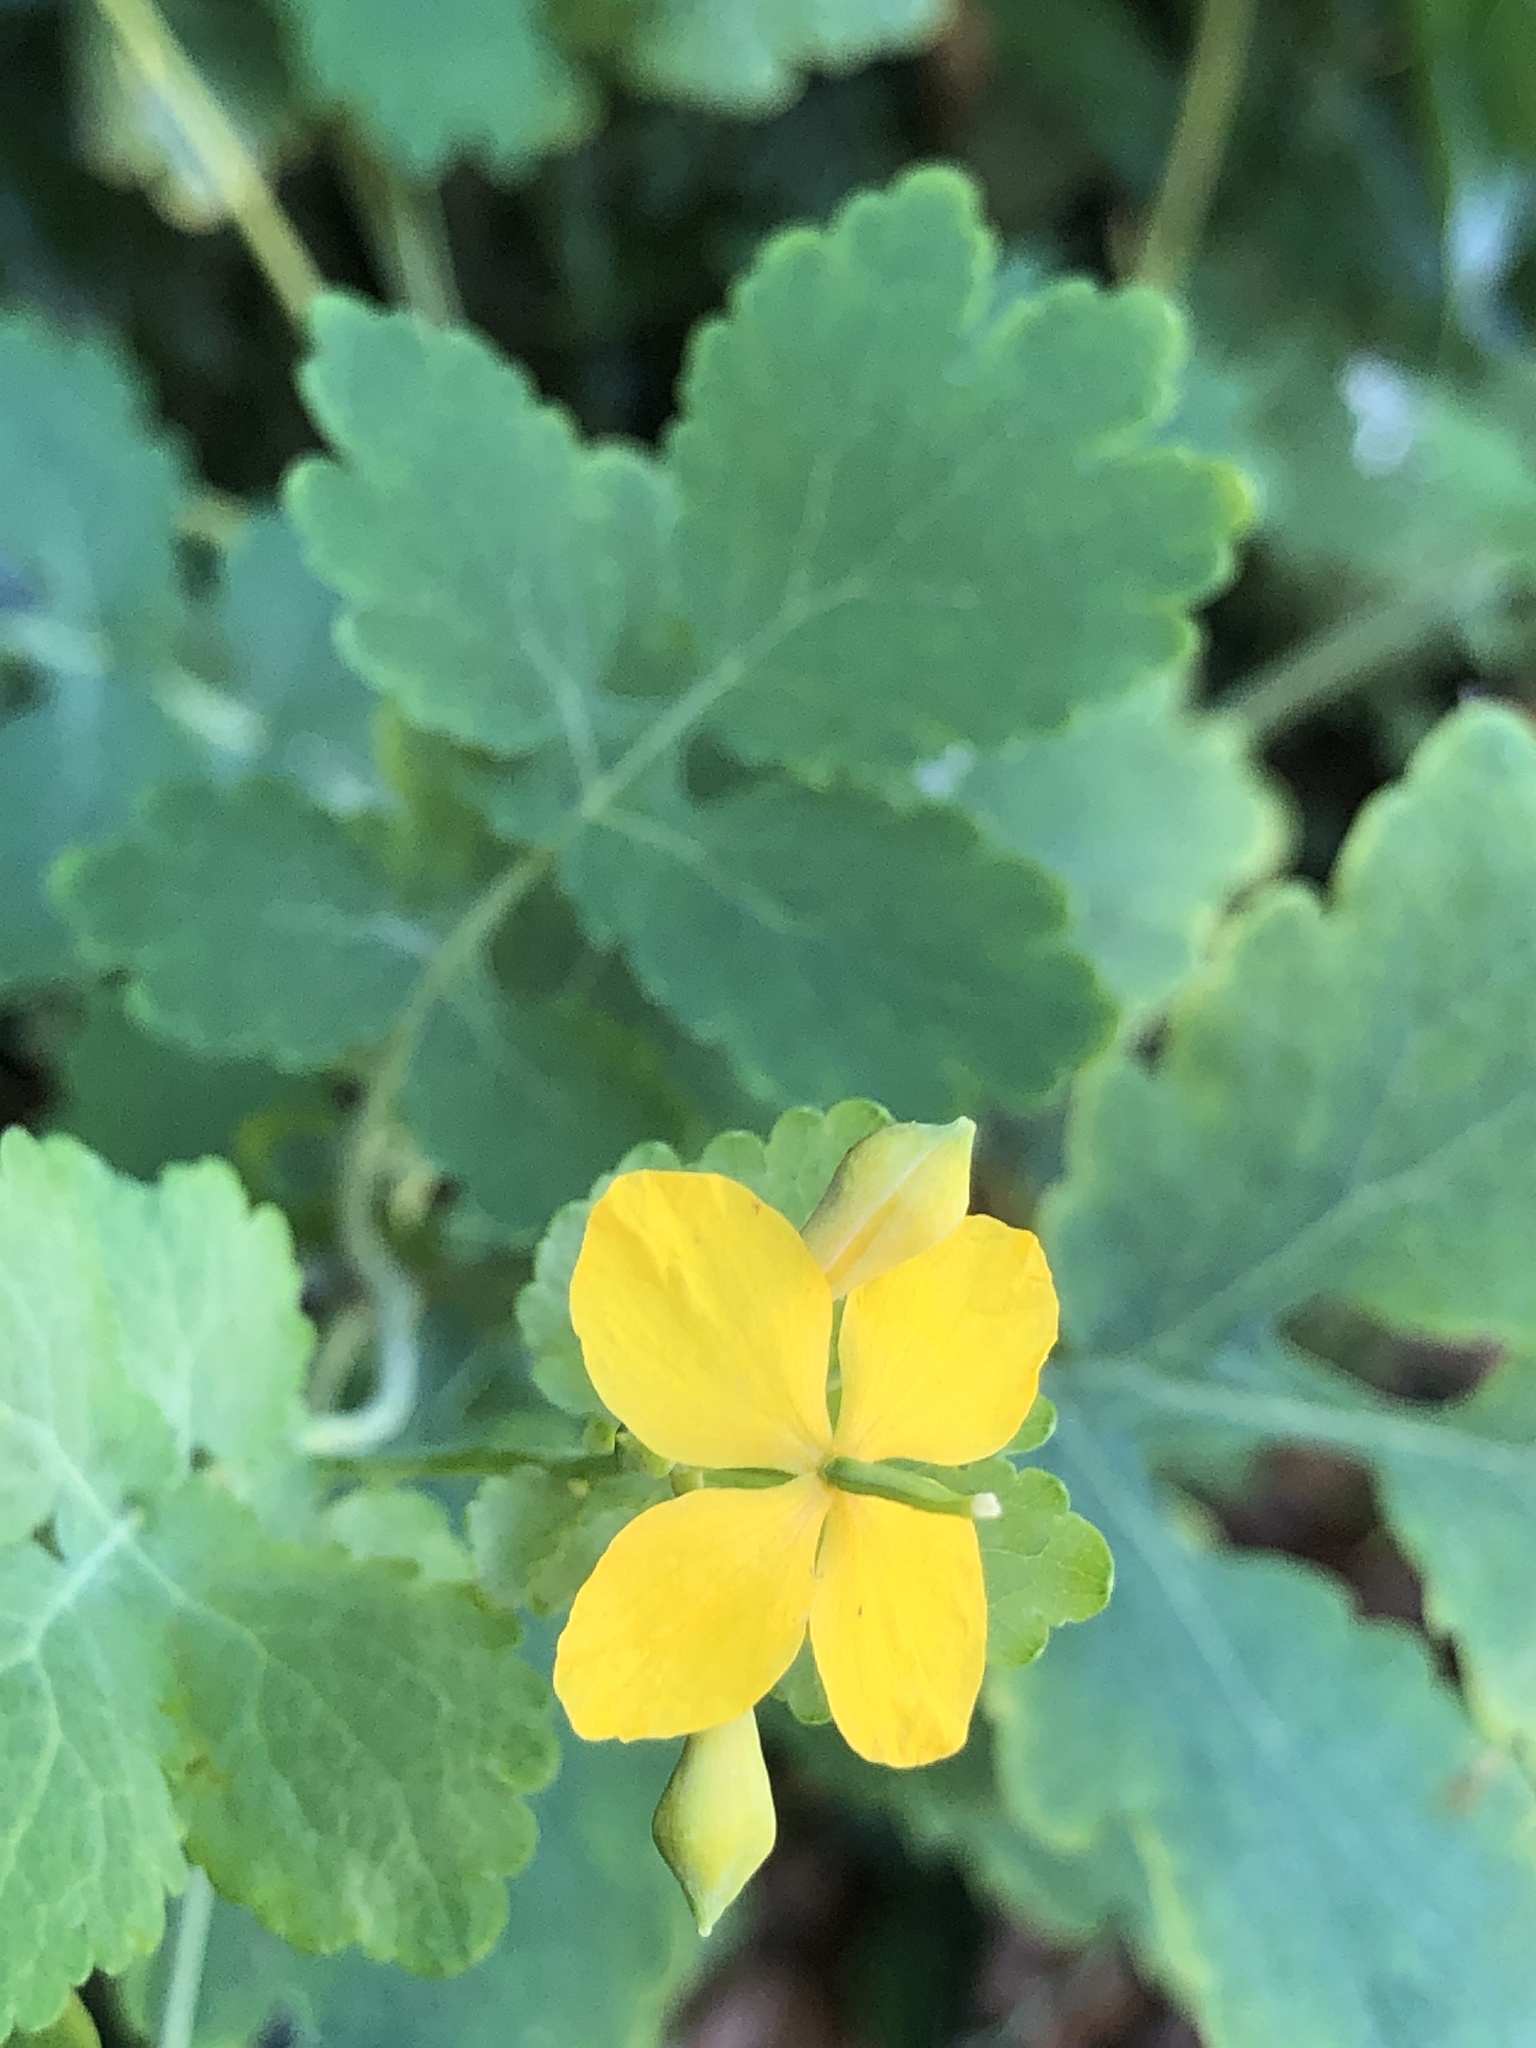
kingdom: Plantae
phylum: Tracheophyta
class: Magnoliopsida
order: Ranunculales
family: Papaveraceae
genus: Chelidonium
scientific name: Chelidonium majus
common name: Greater celandine
